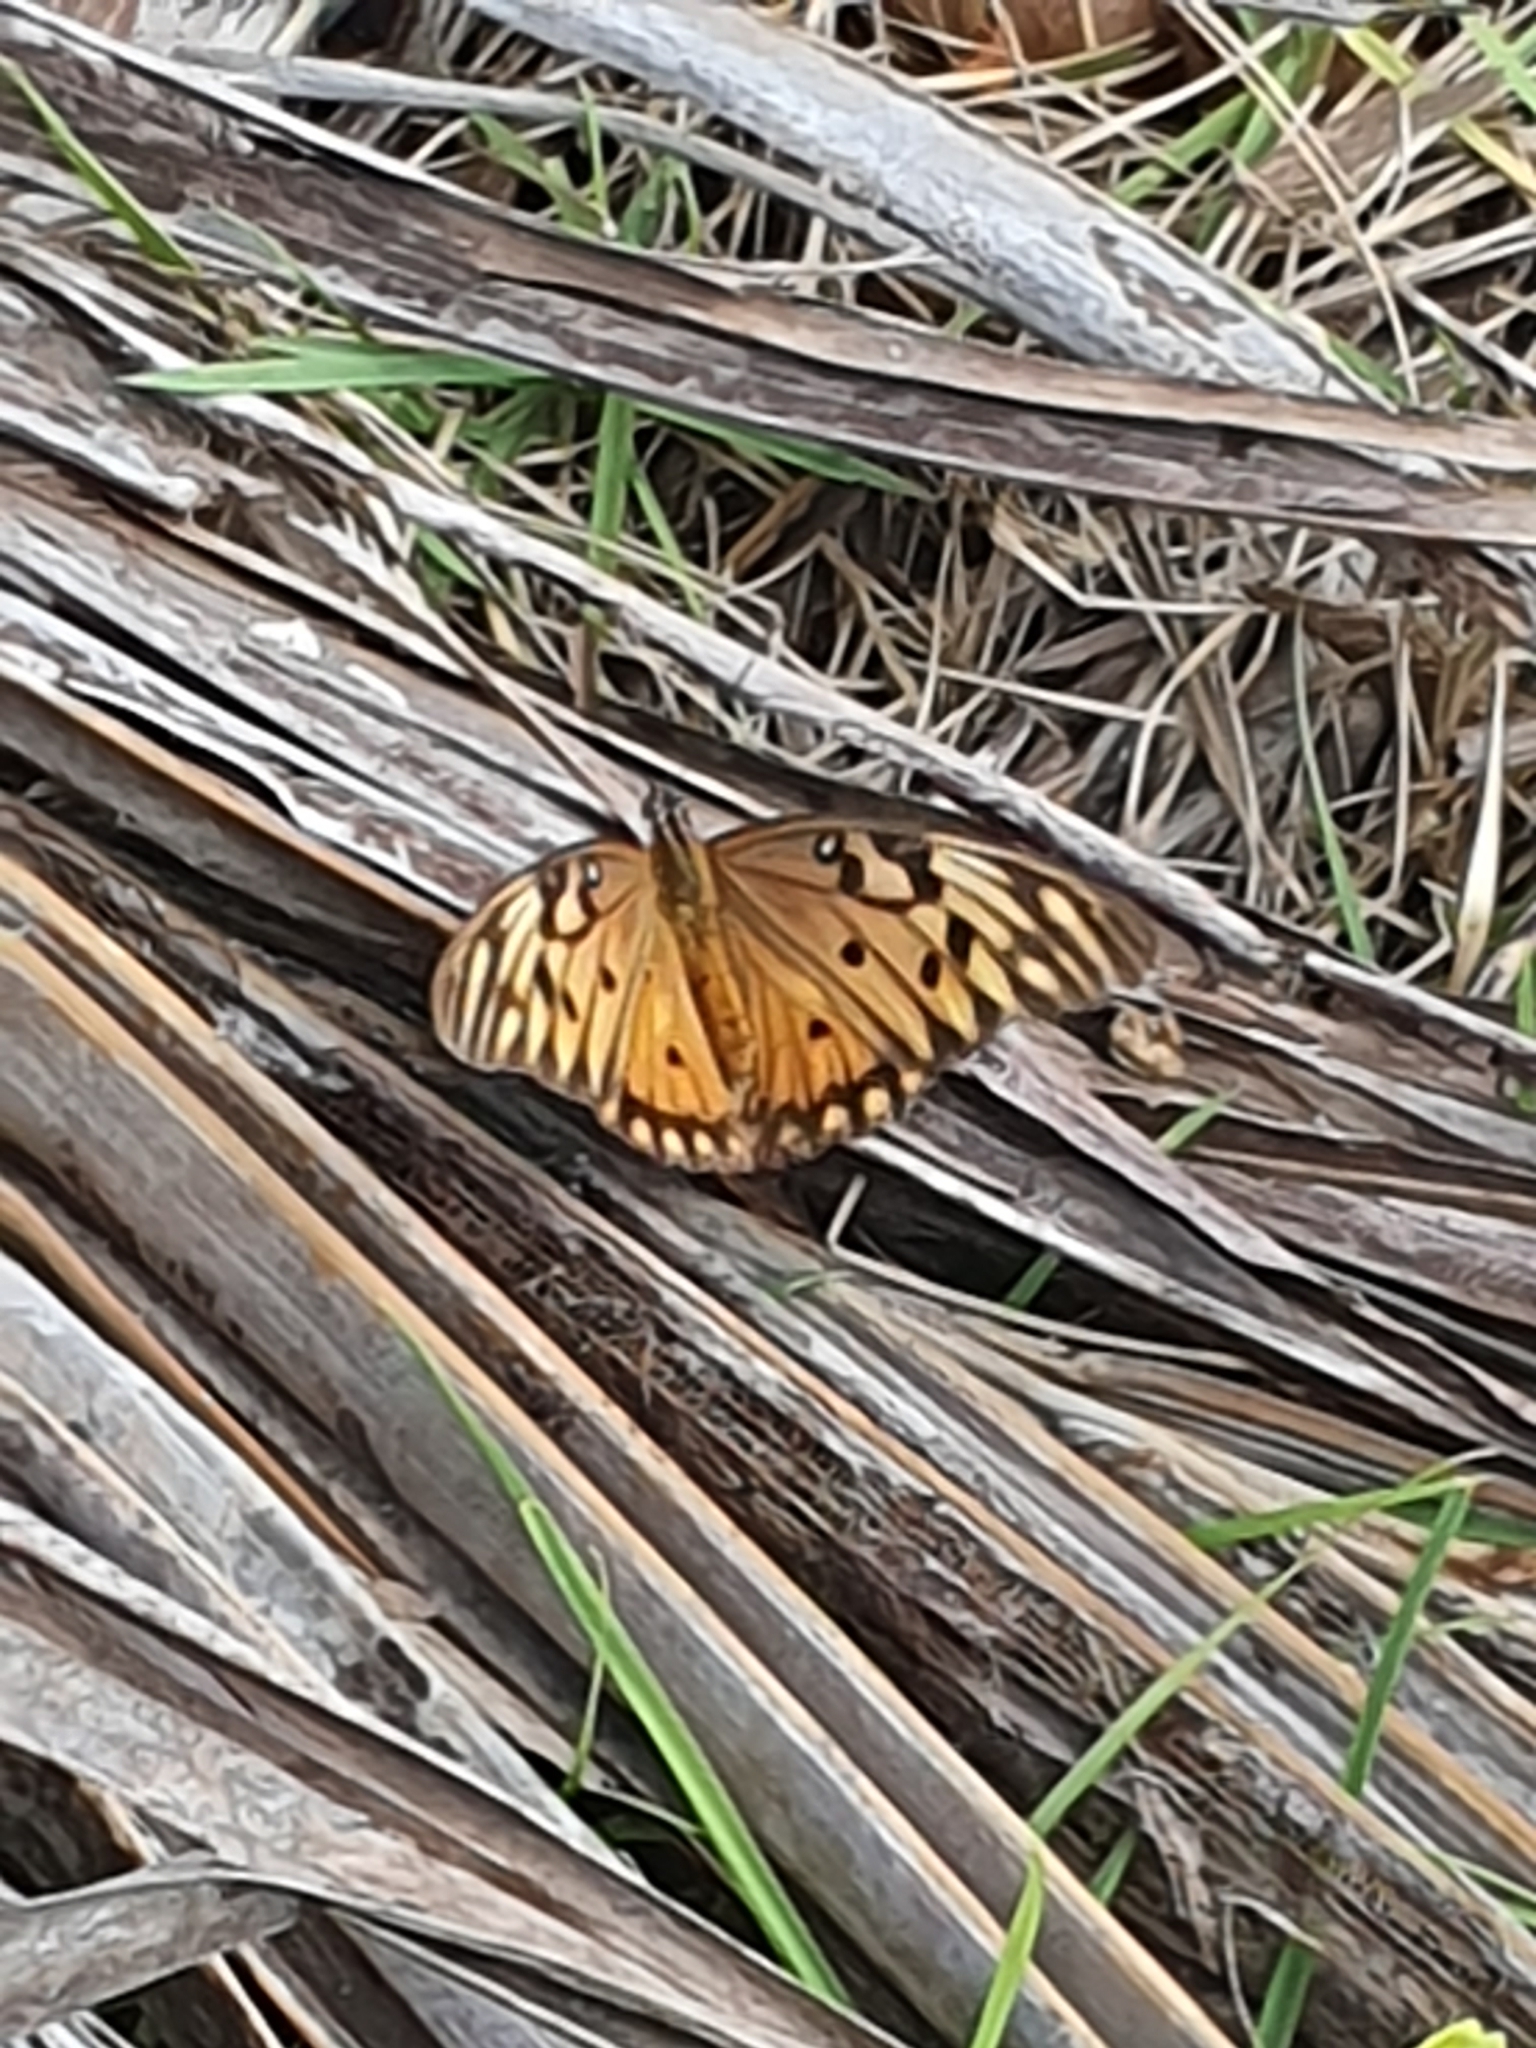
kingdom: Animalia
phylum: Arthropoda
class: Insecta
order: Lepidoptera
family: Nymphalidae
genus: Dione
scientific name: Dione vanillae
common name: Gulf fritillary
